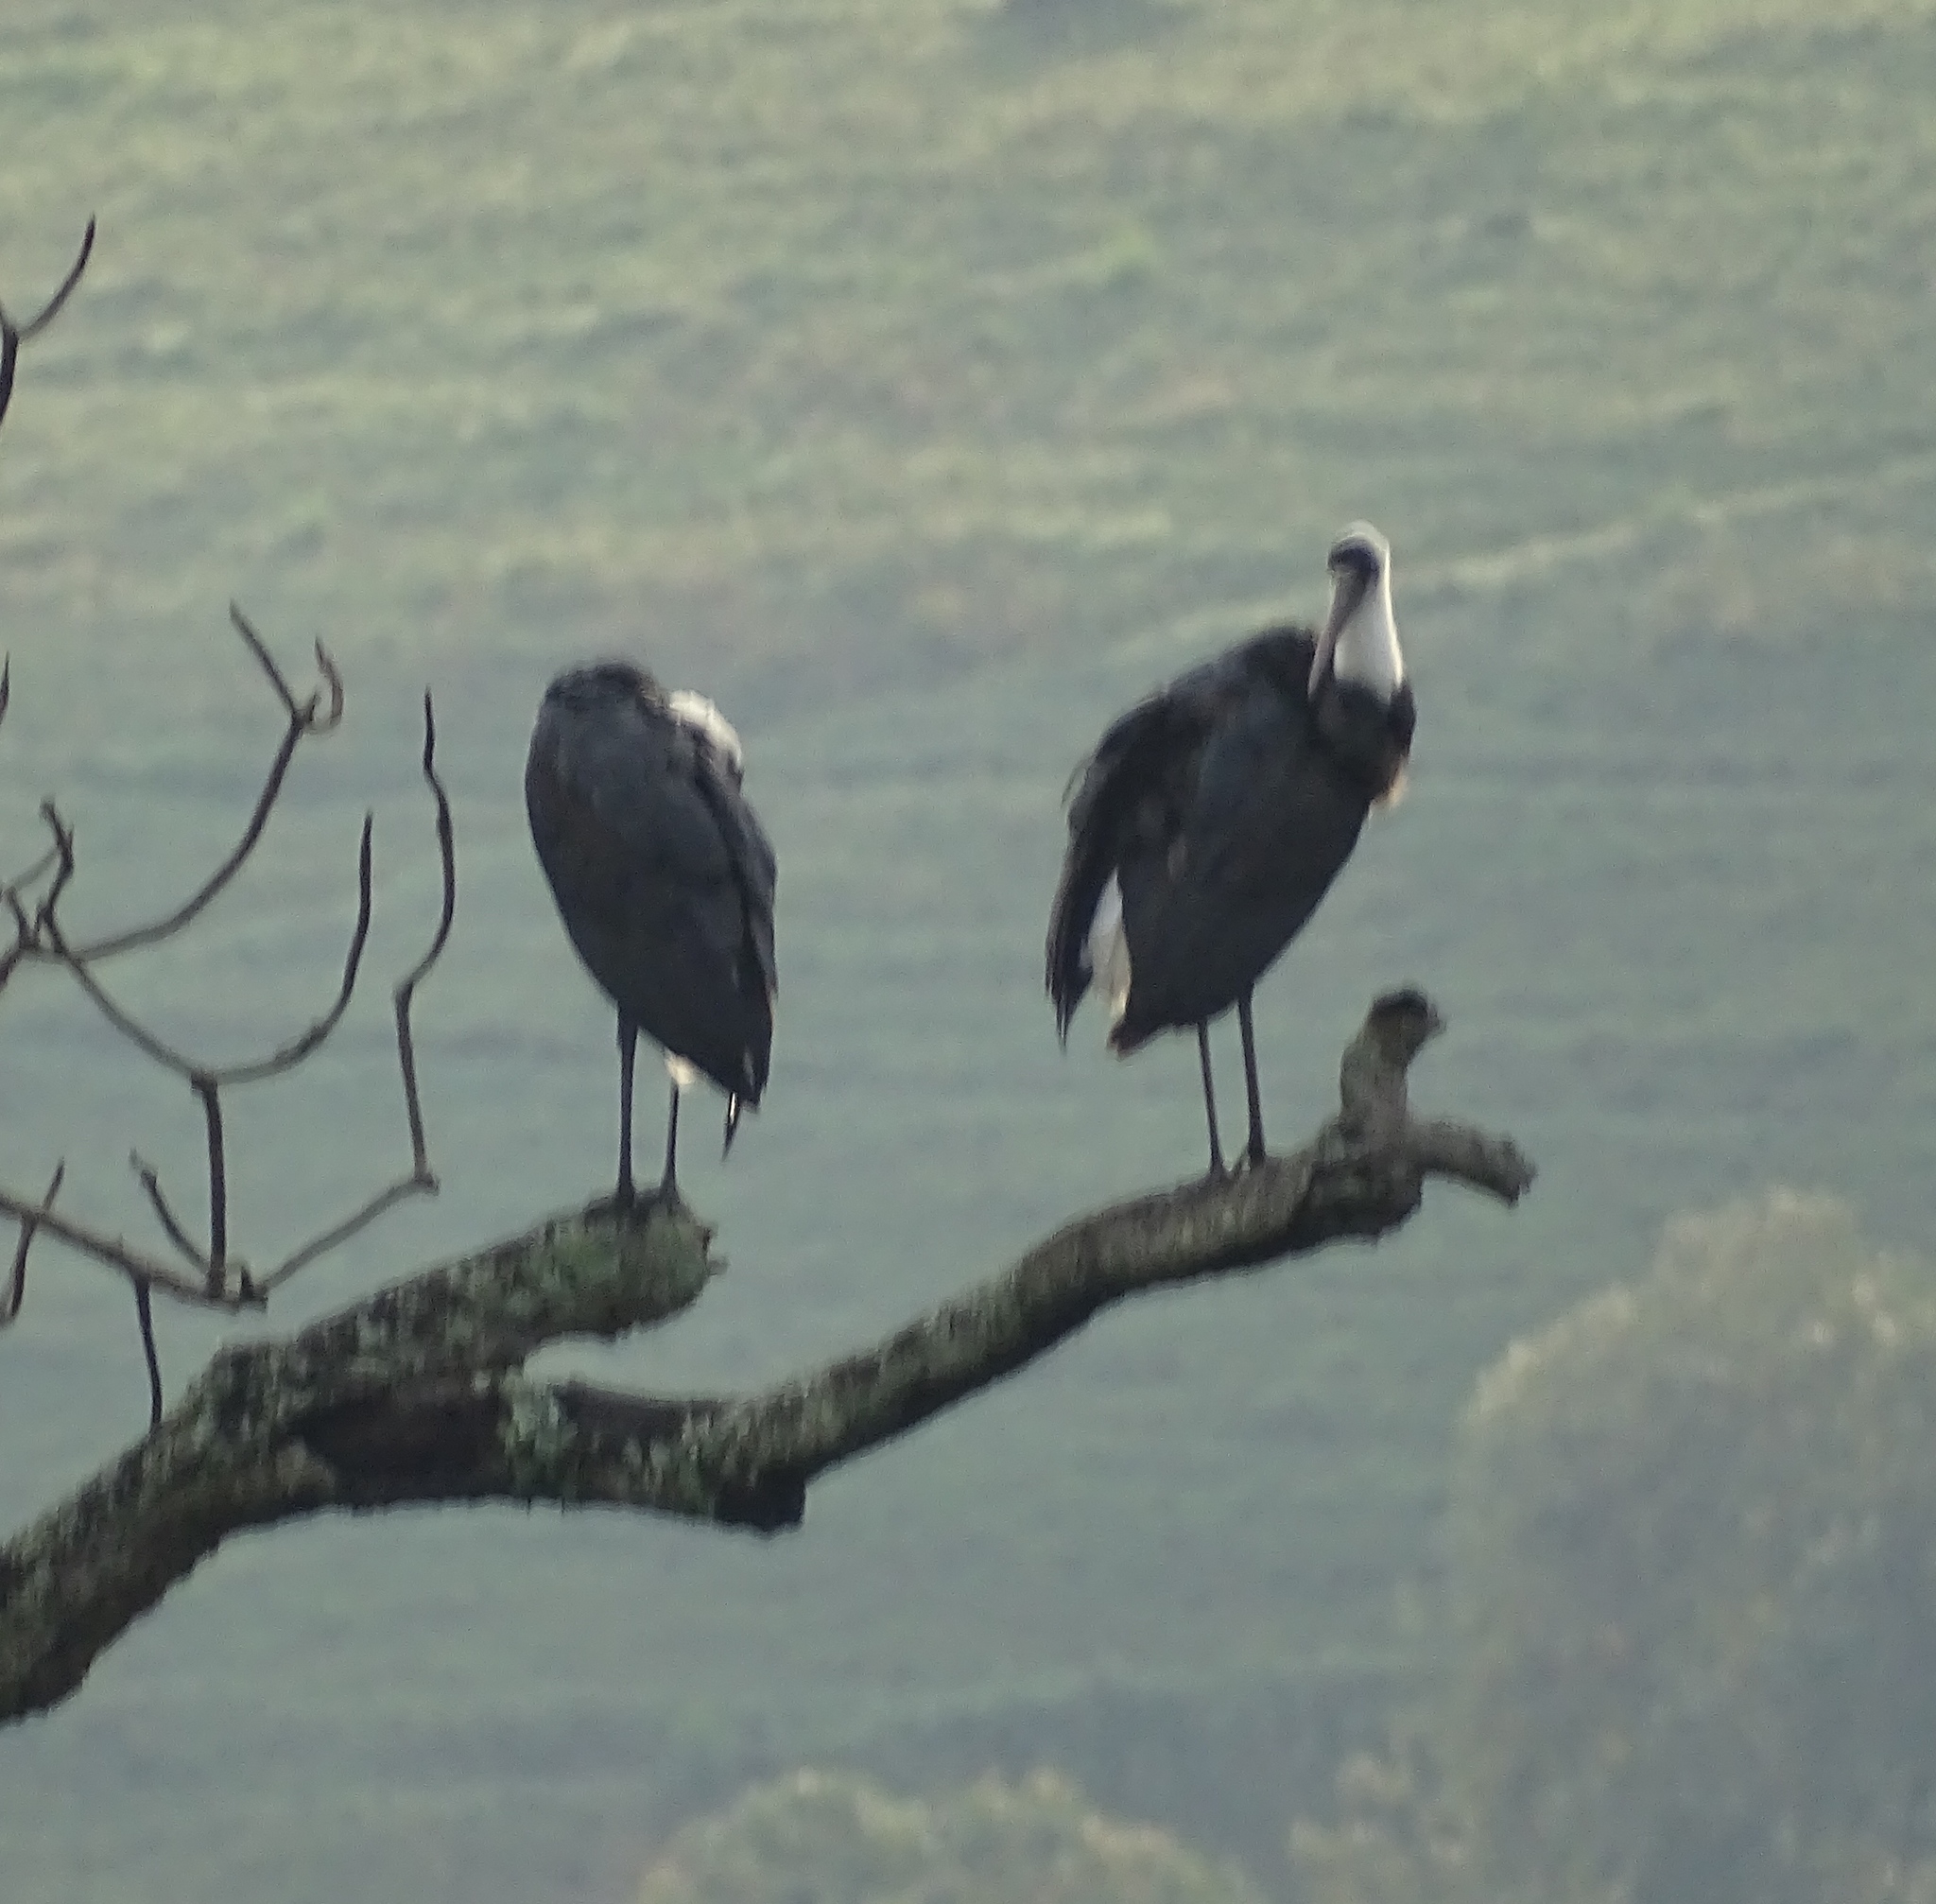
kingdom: Animalia
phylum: Chordata
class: Aves
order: Ciconiiformes
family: Ciconiidae
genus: Ciconia
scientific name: Ciconia microscelis
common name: African woollyneck
